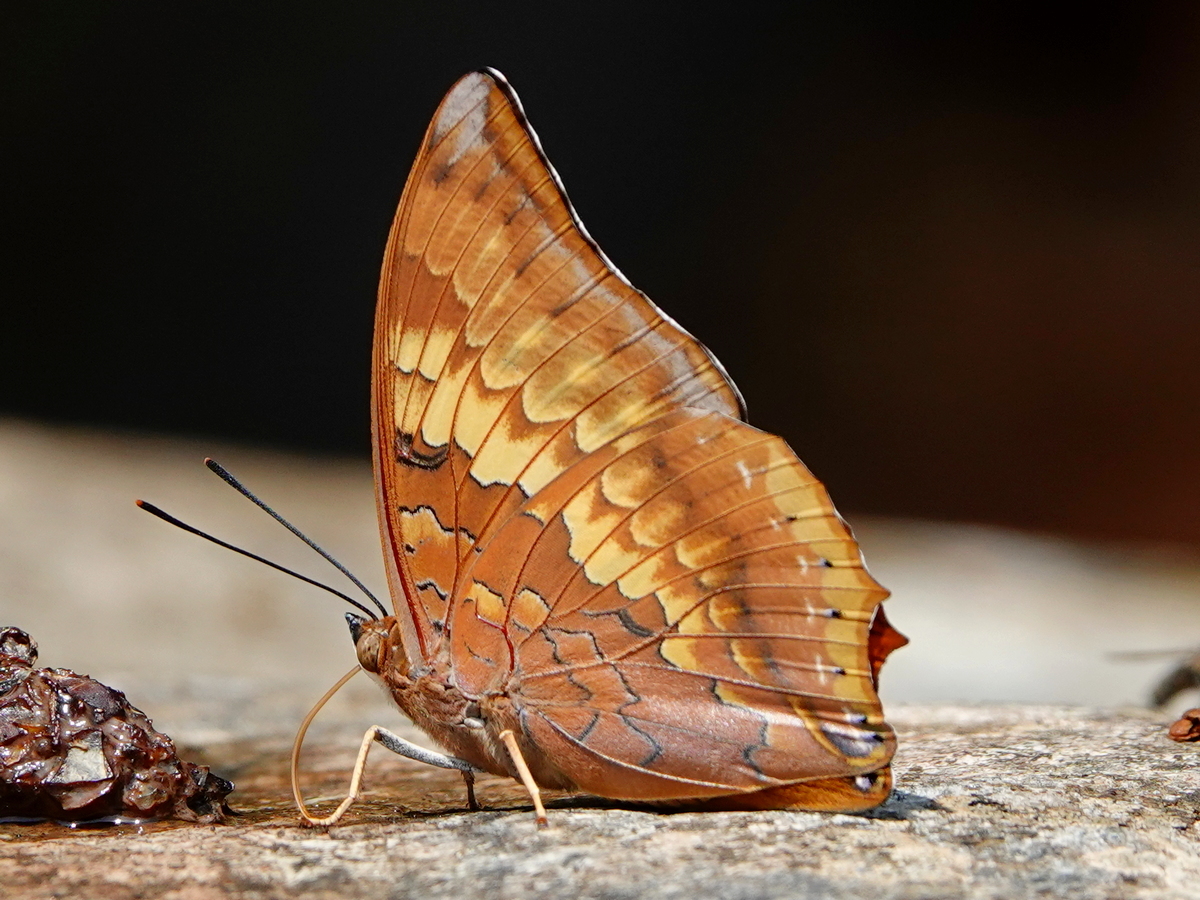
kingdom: Animalia
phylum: Arthropoda
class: Insecta
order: Lepidoptera
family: Nymphalidae
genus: Charaxes
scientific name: Charaxes bernardus
